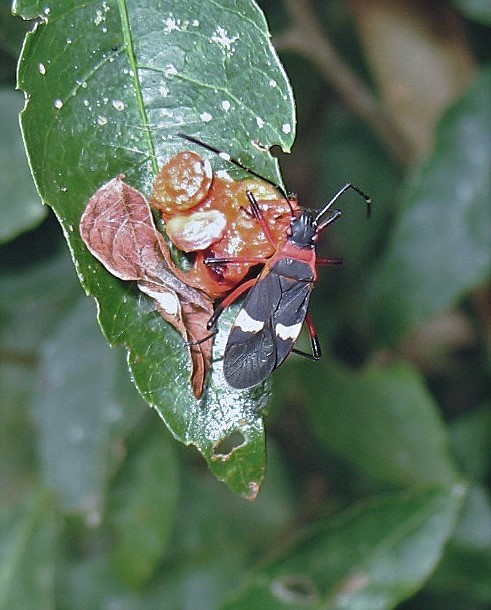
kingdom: Animalia
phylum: Arthropoda
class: Insecta
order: Hemiptera
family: Pyrrhocoridae
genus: Dysdercus
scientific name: Dysdercus albofasciatus
